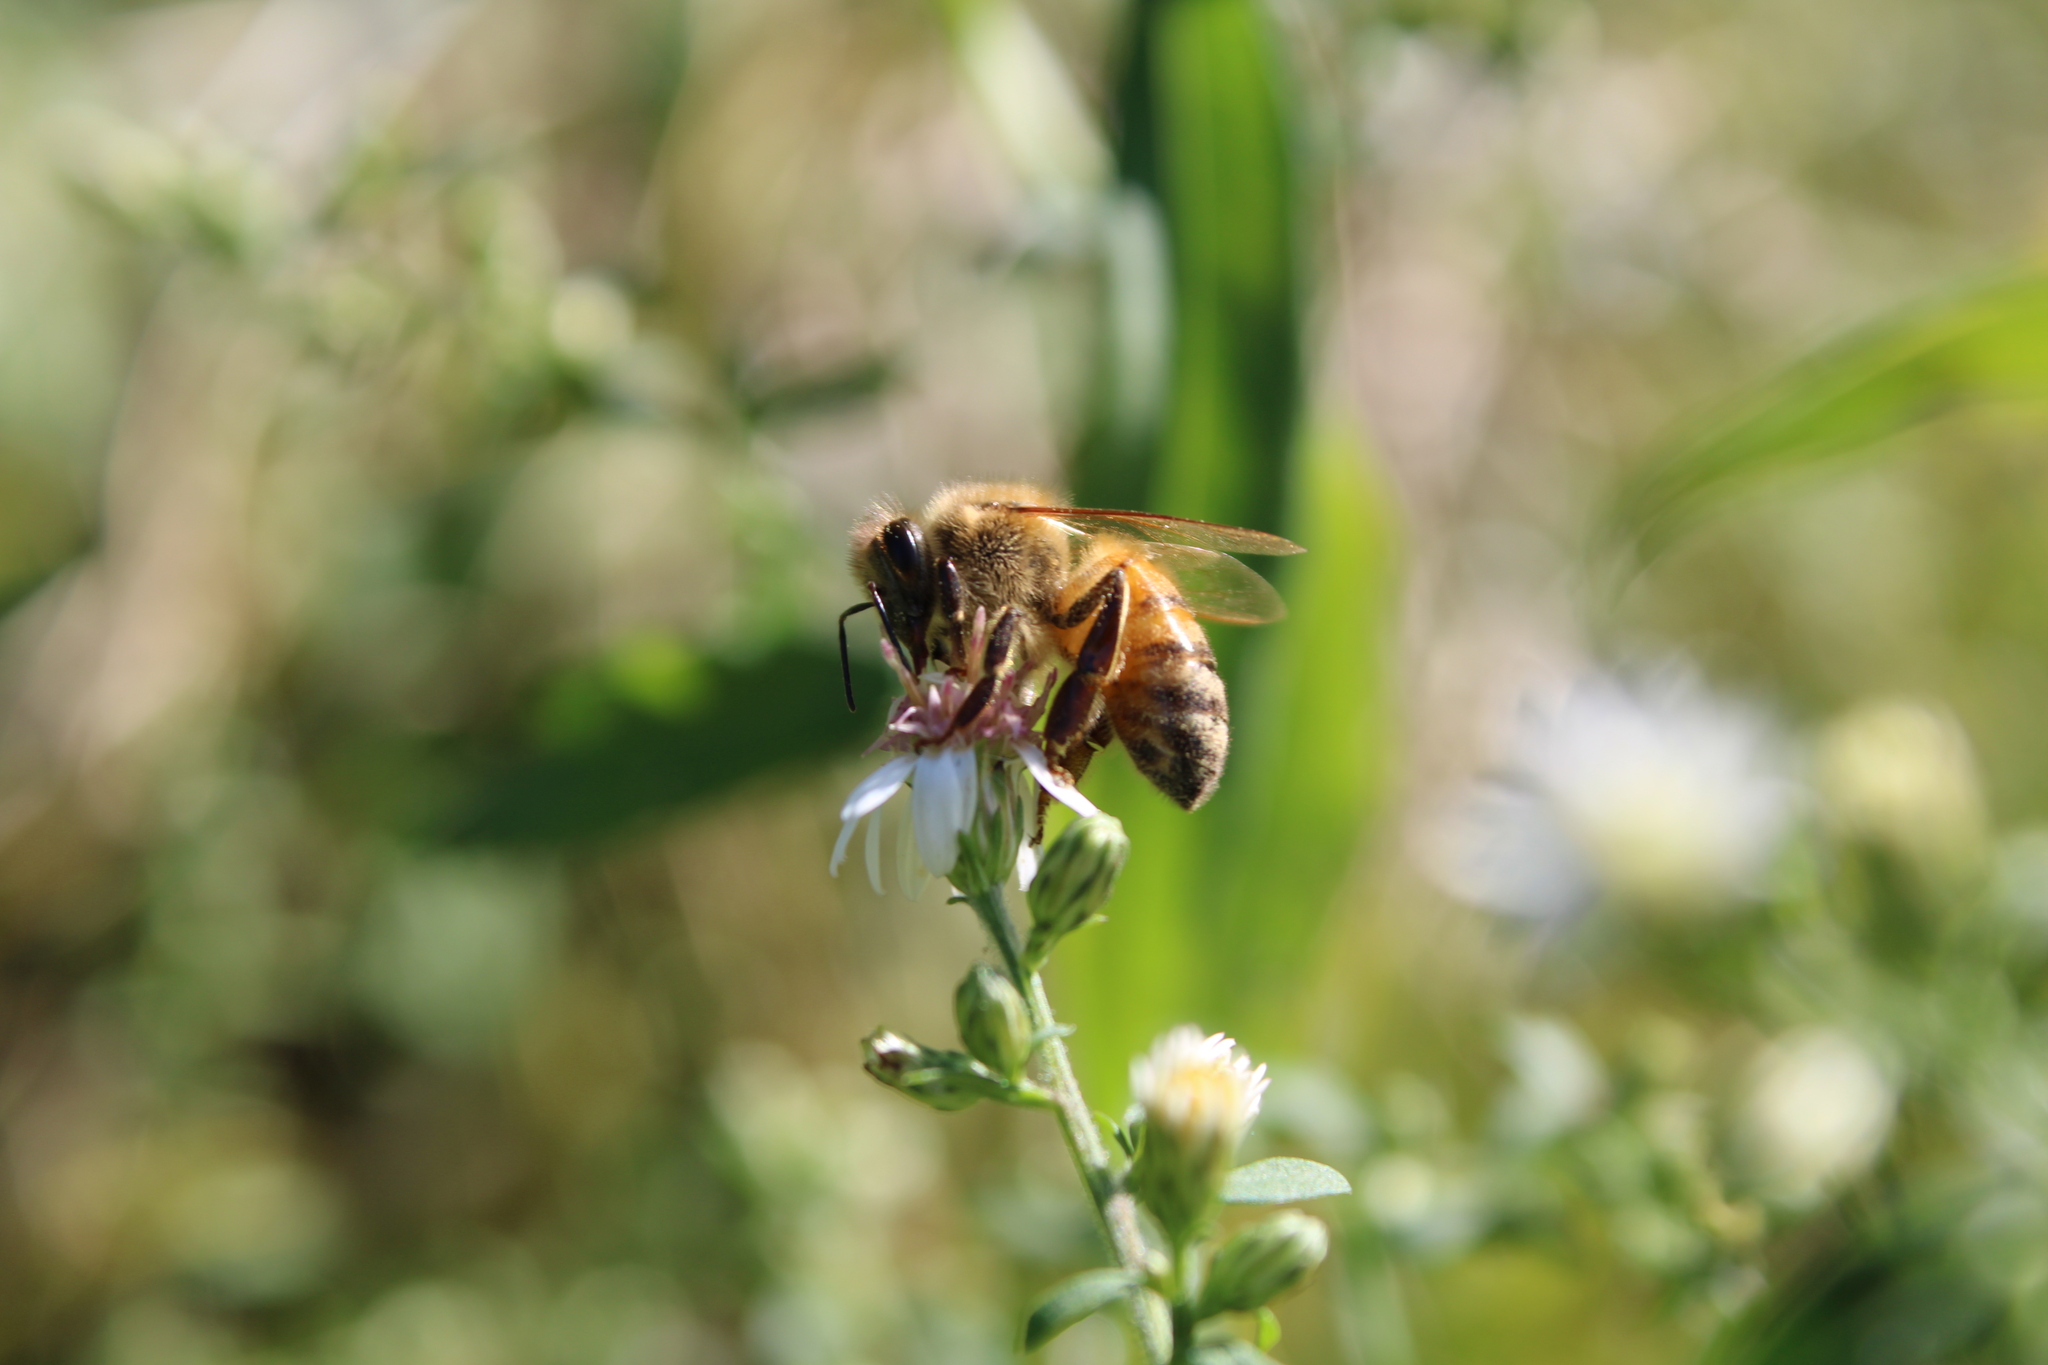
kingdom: Animalia
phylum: Arthropoda
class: Insecta
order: Hymenoptera
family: Apidae
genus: Apis
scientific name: Apis mellifera
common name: Honey bee
